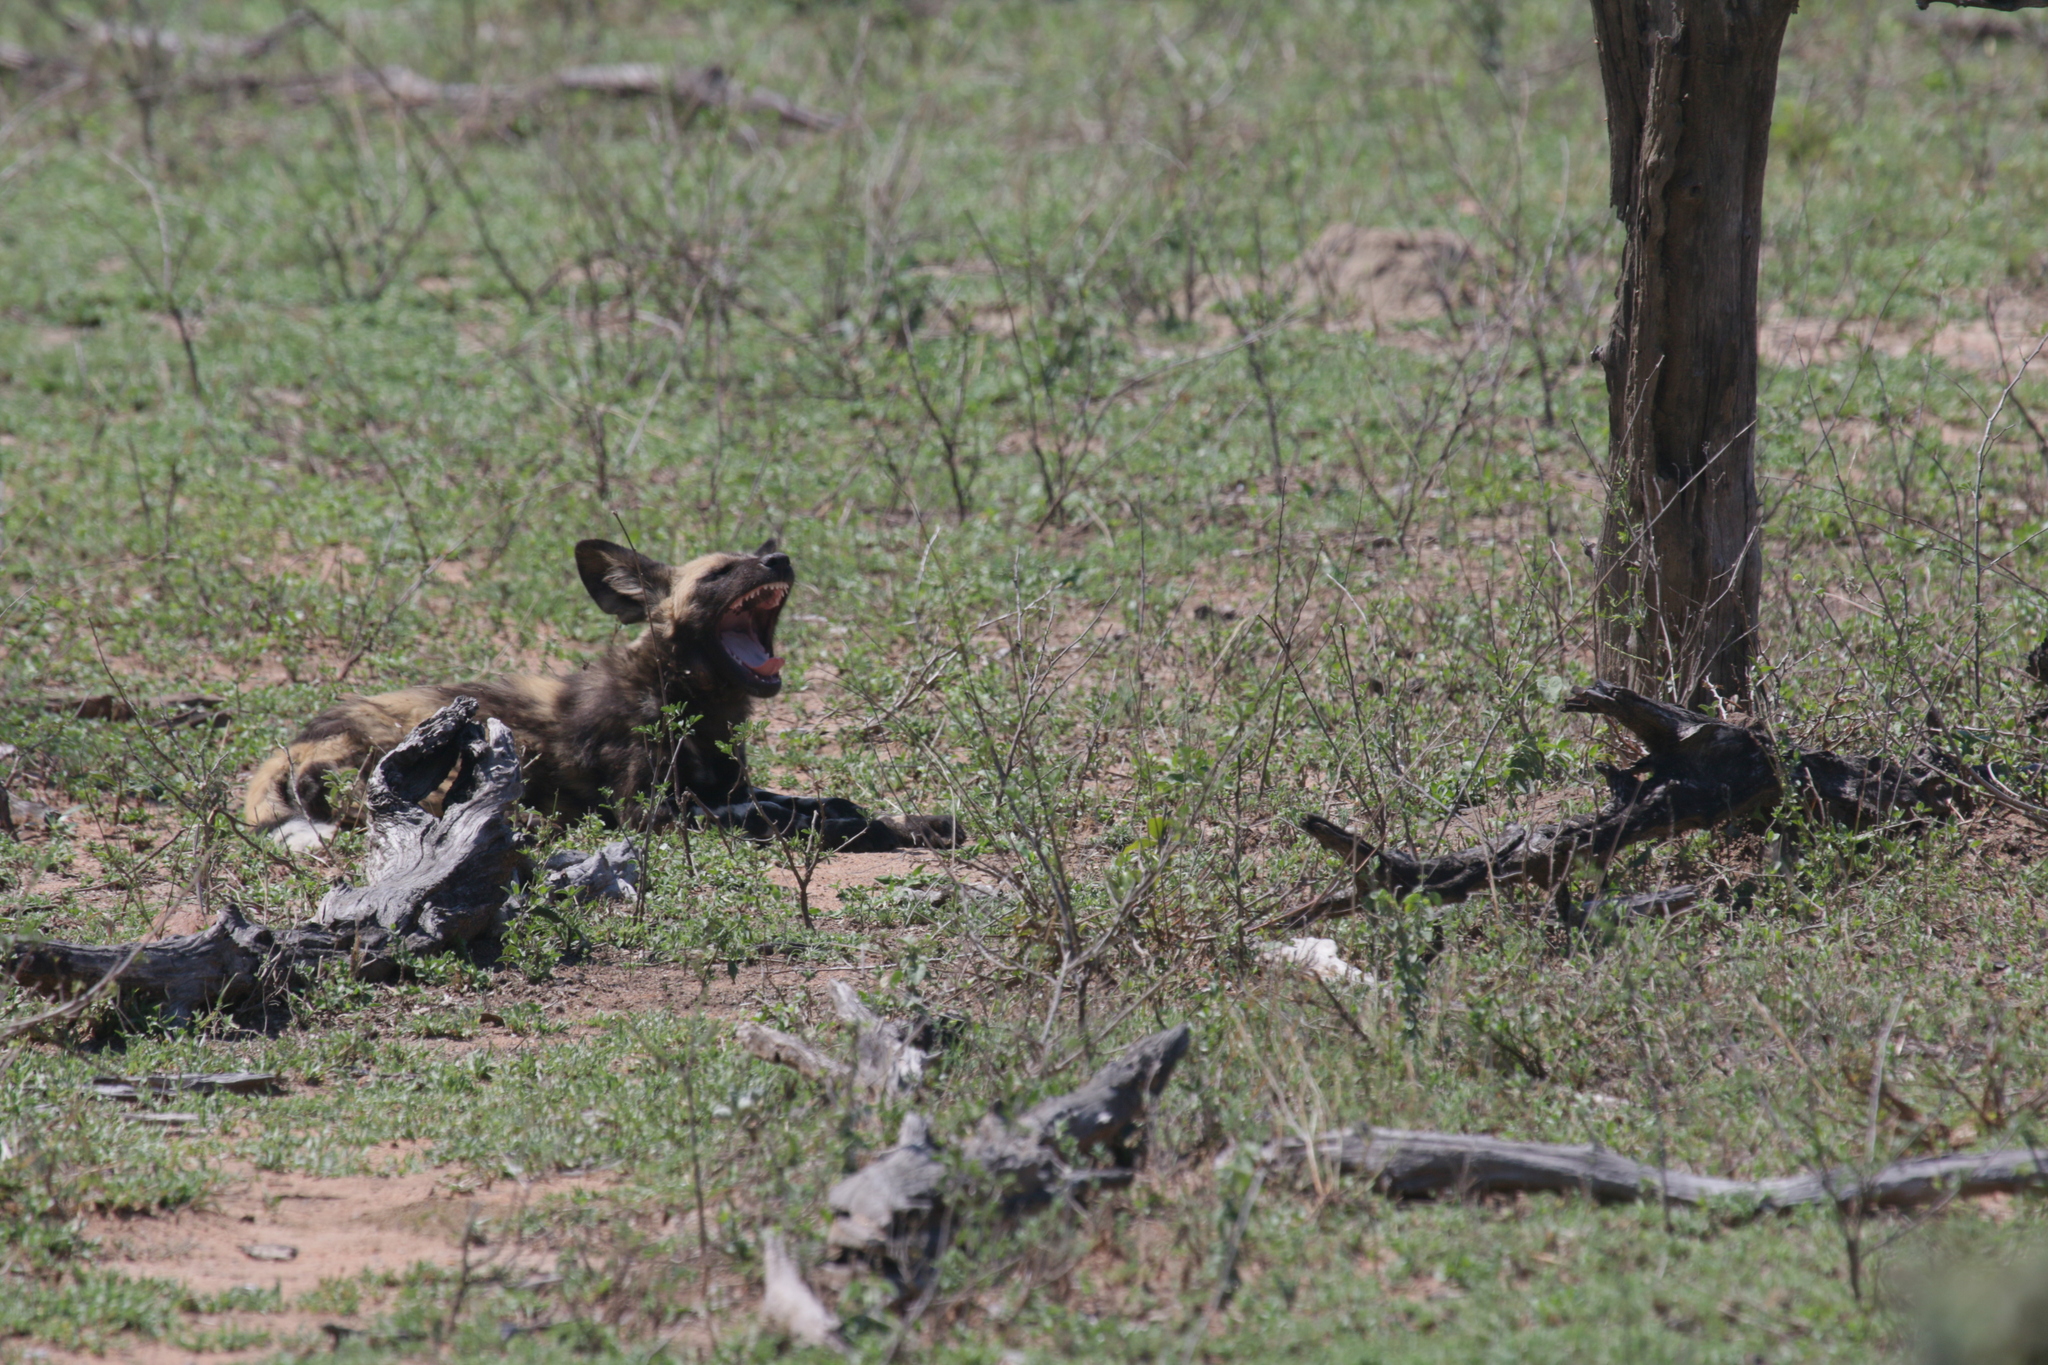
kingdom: Animalia
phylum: Chordata
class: Mammalia
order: Carnivora
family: Canidae
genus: Lycaon
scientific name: Lycaon pictus
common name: African wild dog
